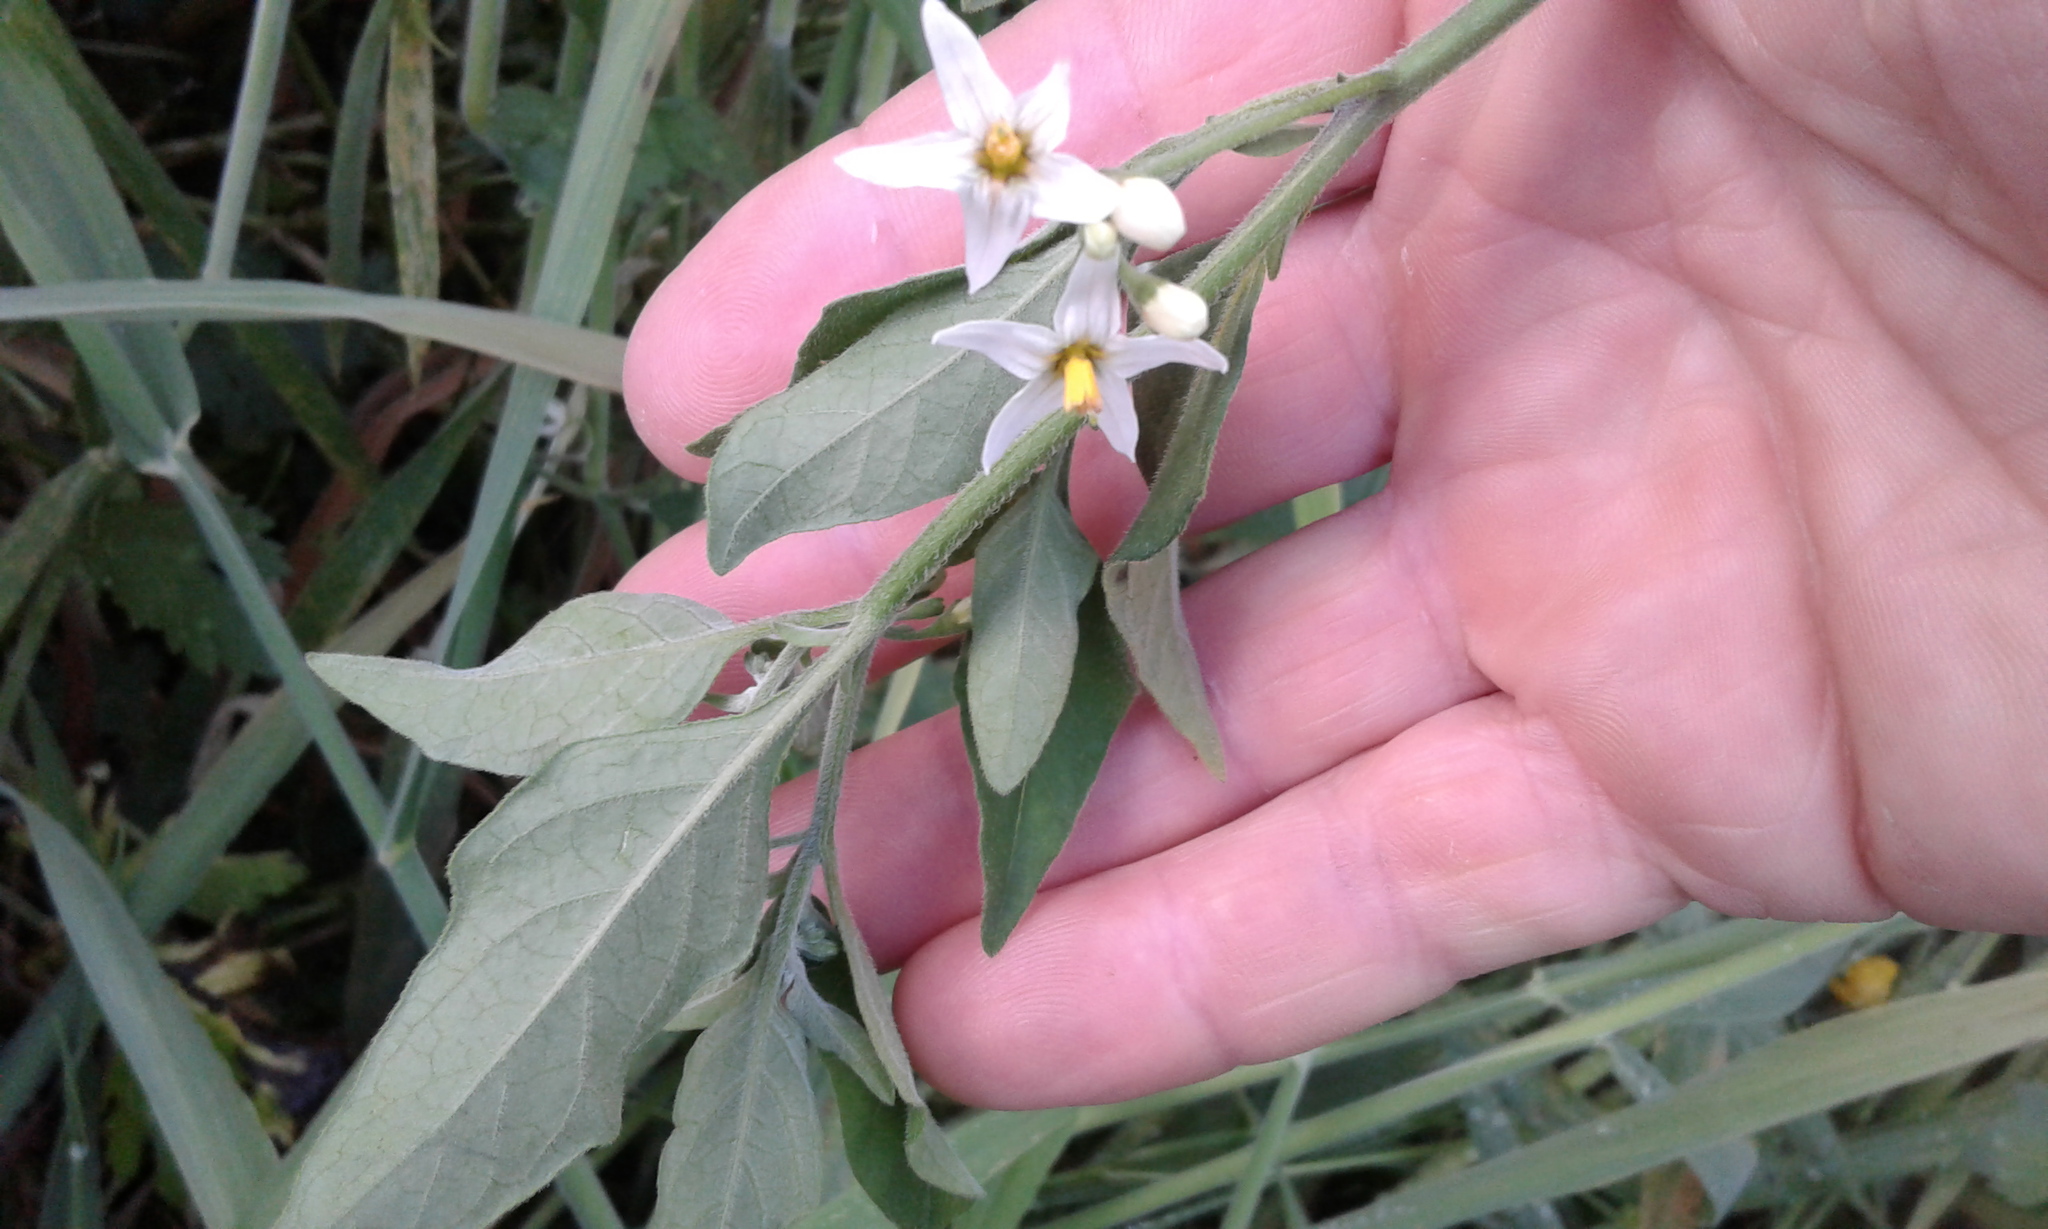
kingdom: Plantae
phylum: Tracheophyta
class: Magnoliopsida
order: Solanales
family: Solanaceae
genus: Solanum
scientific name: Solanum chenopodioides
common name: Tall nightshade
